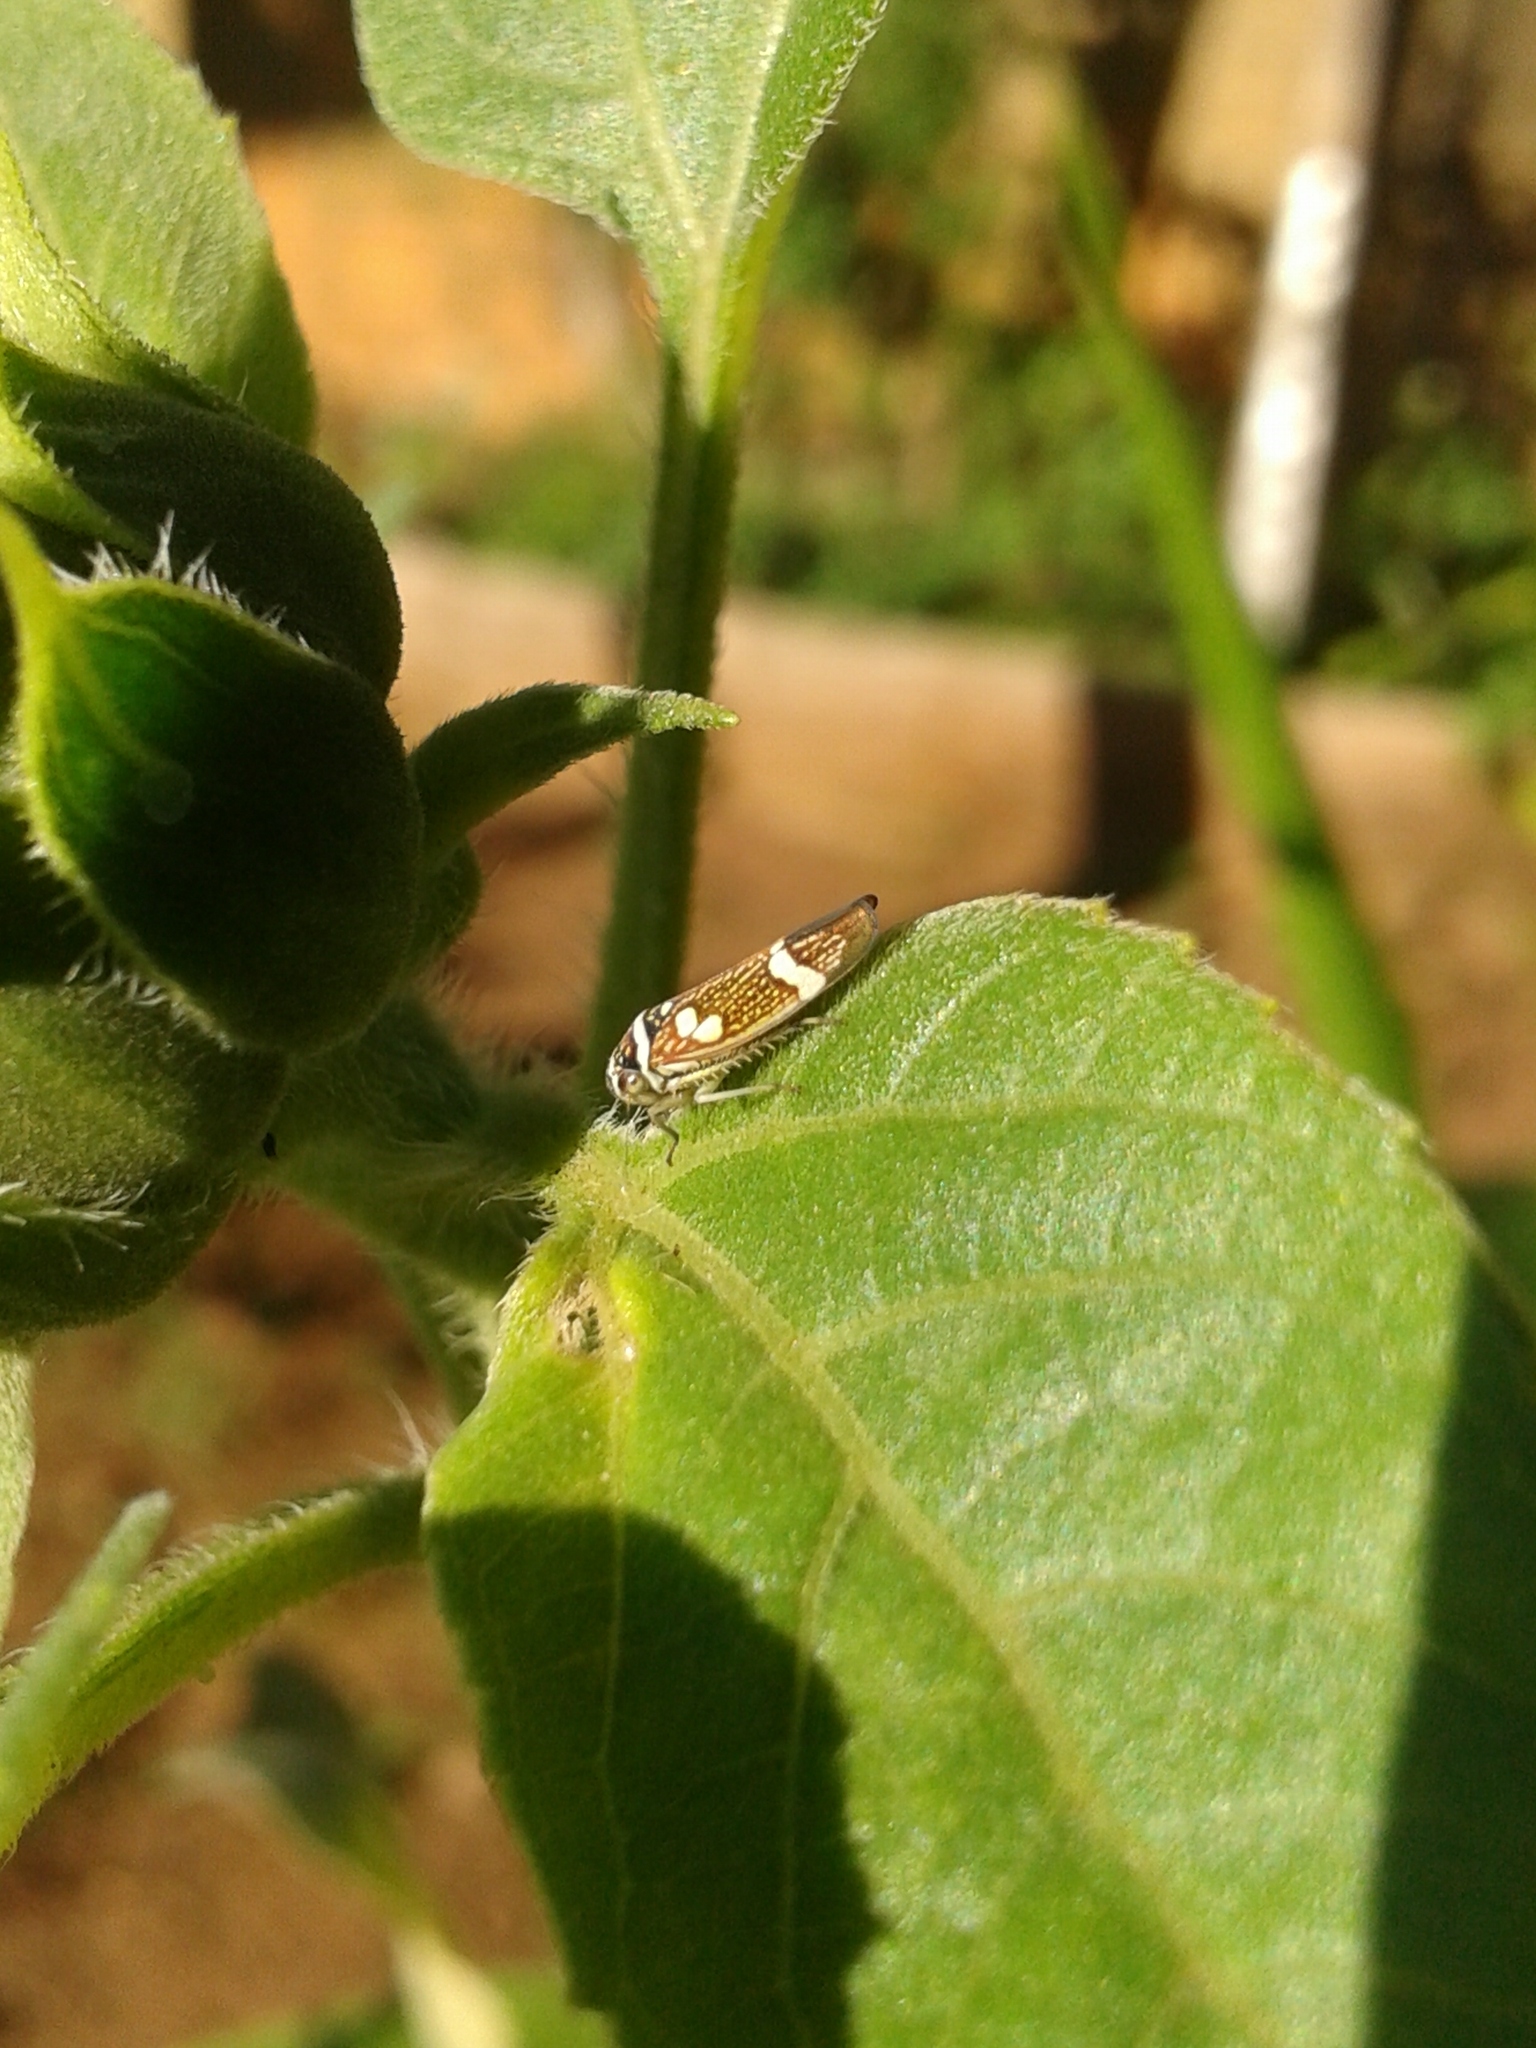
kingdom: Animalia
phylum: Arthropoda
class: Insecta
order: Hemiptera
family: Cicadellidae
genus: Macugonalia
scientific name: Macugonalia leucomelas
